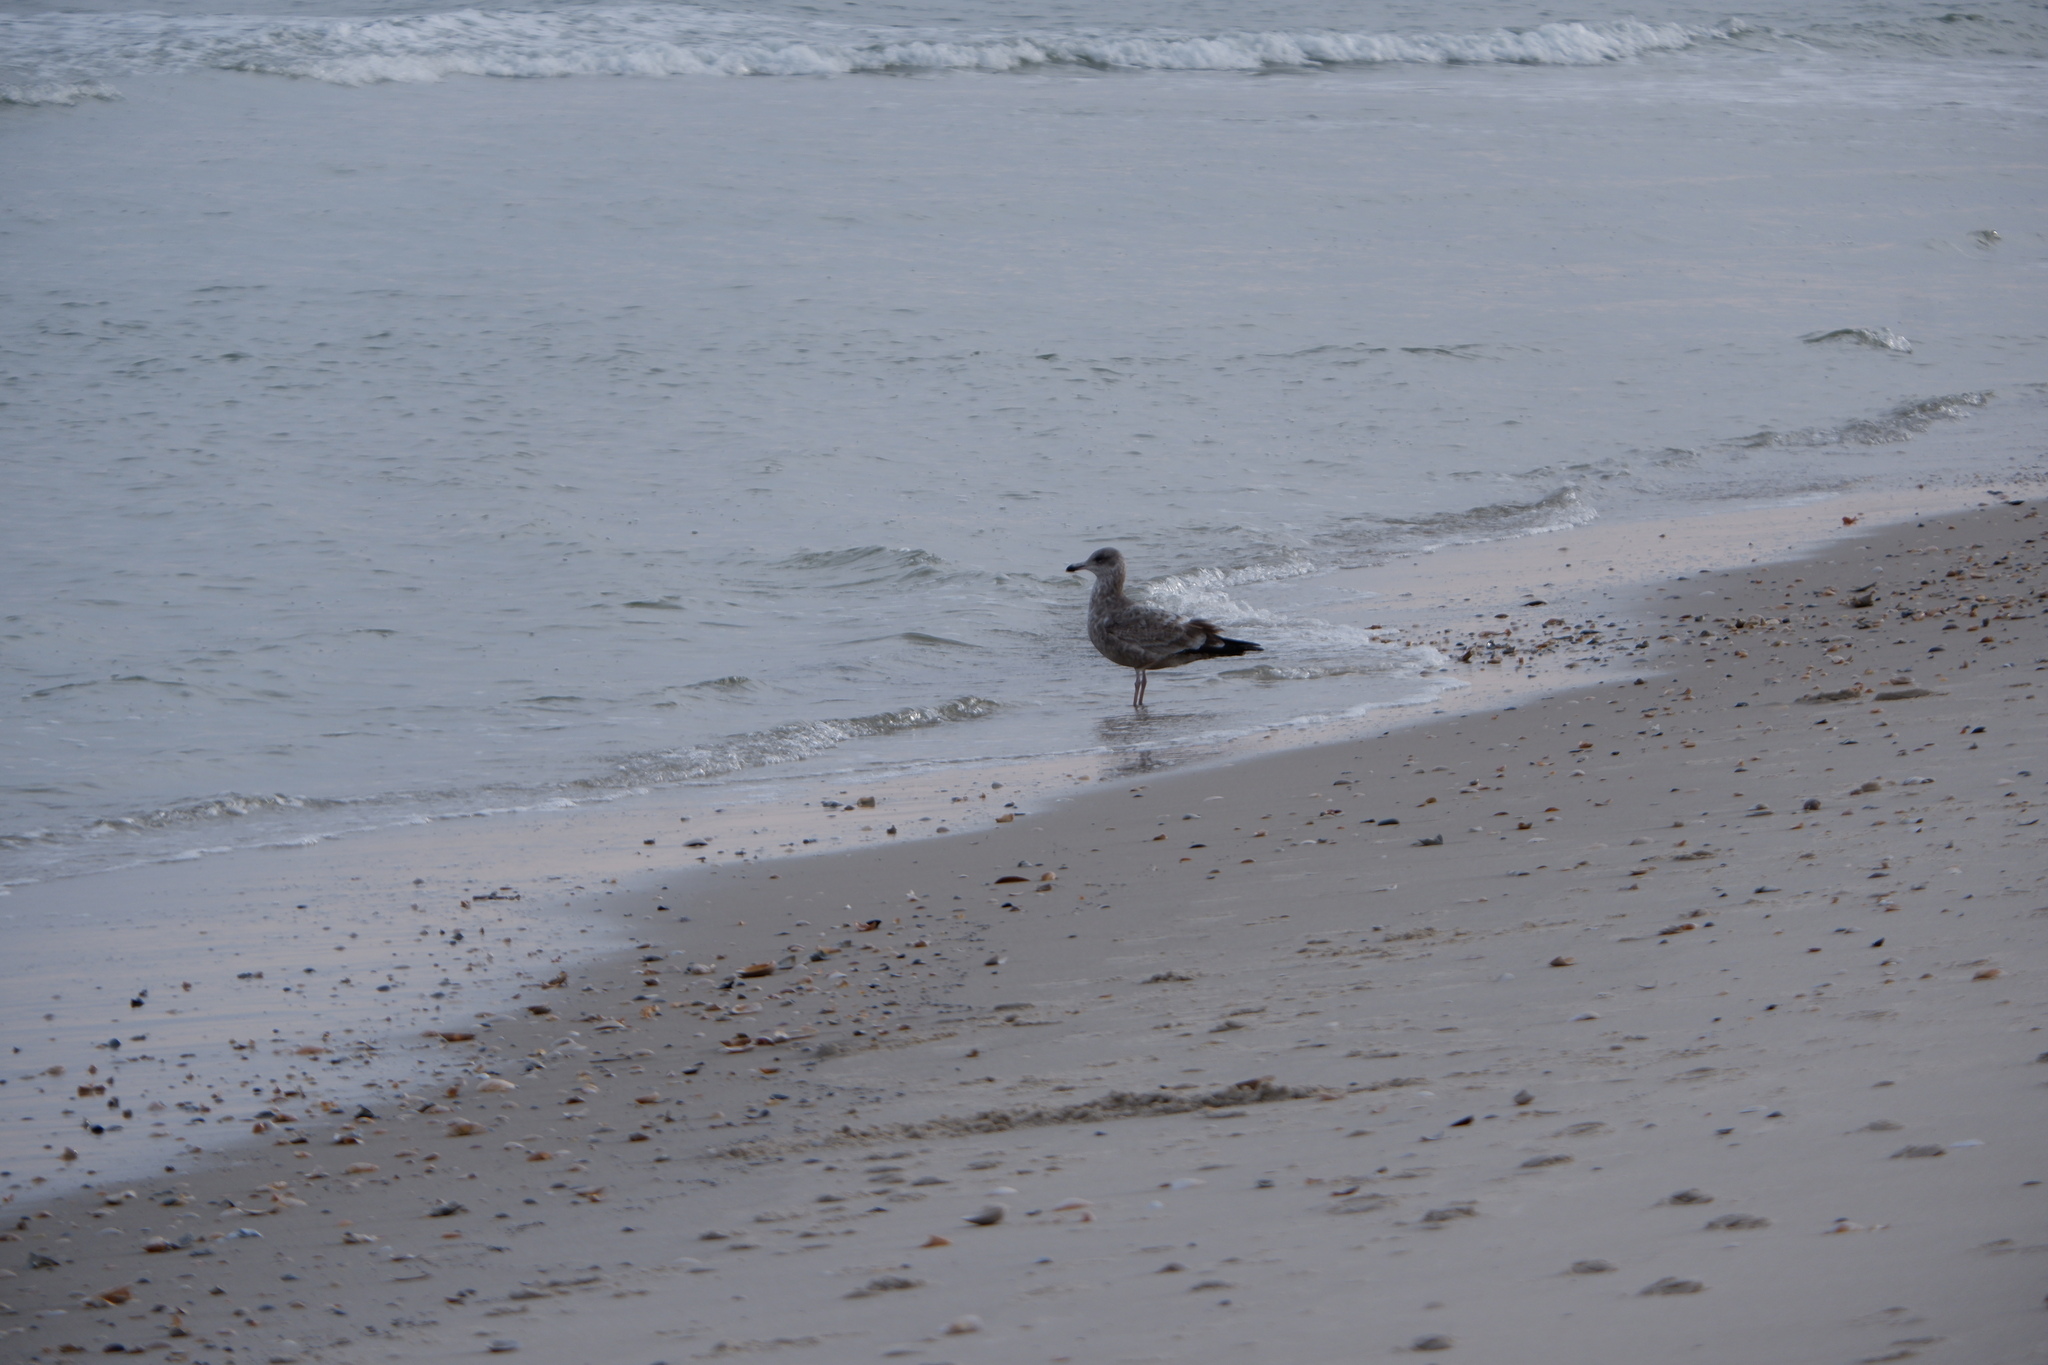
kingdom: Animalia
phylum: Chordata
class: Aves
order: Charadriiformes
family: Laridae
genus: Larus
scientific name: Larus smithsonianus
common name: American herring gull
